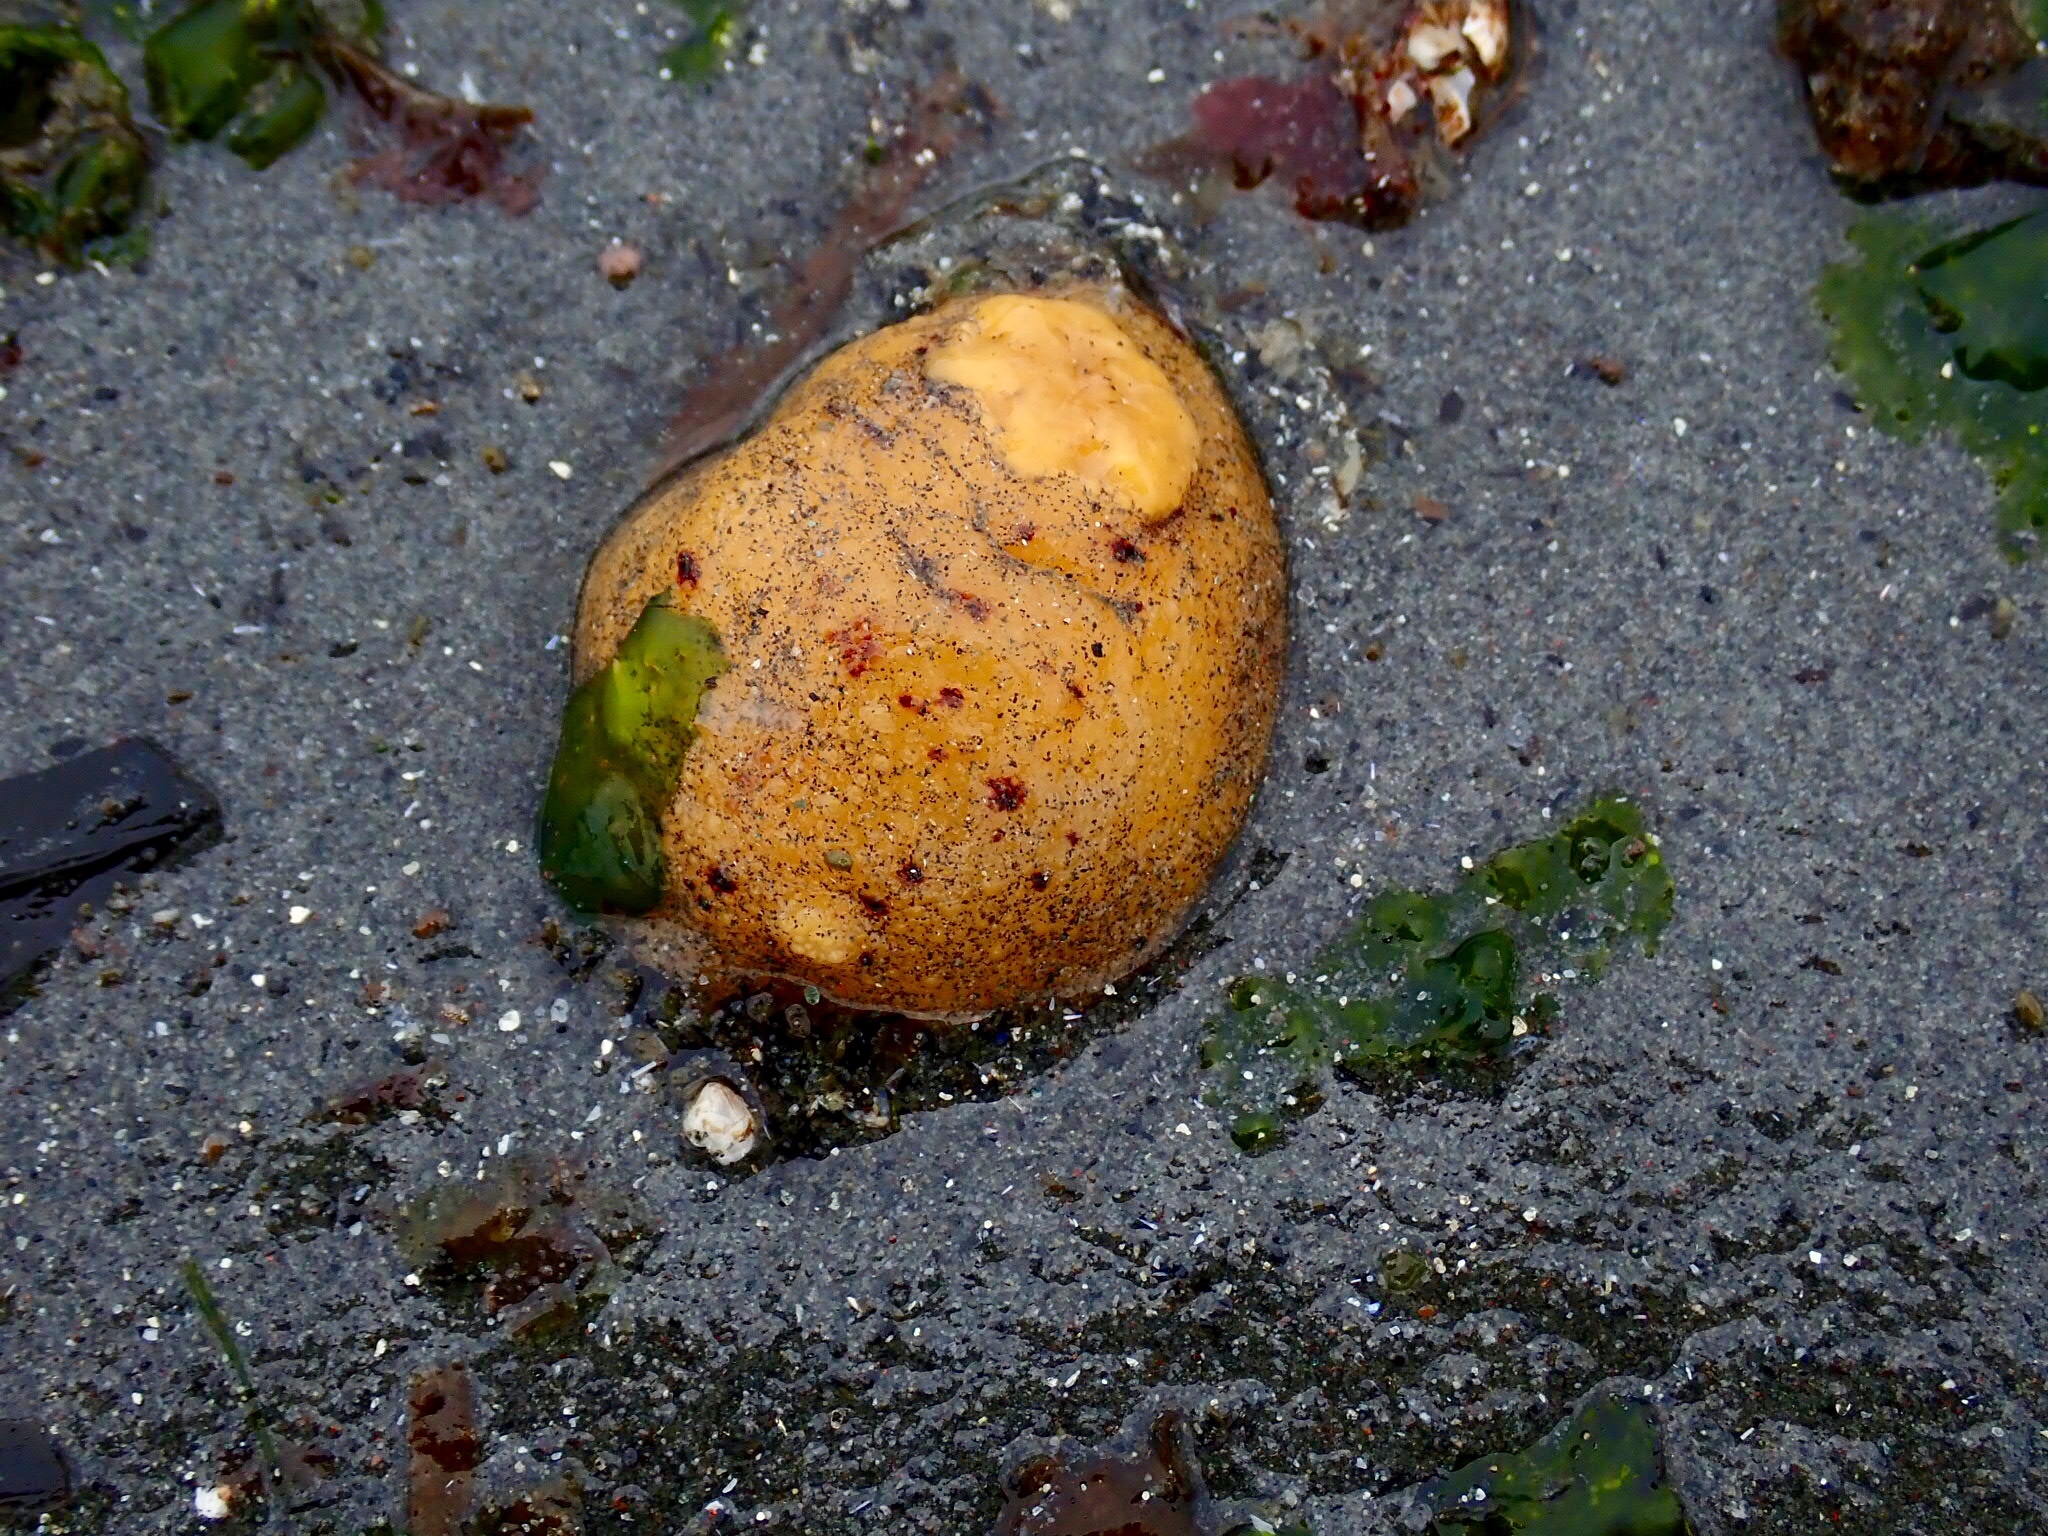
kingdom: Animalia
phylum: Mollusca
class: Gastropoda
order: Nudibranchia
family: Dorididae
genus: Doris
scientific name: Doris montereyensis
